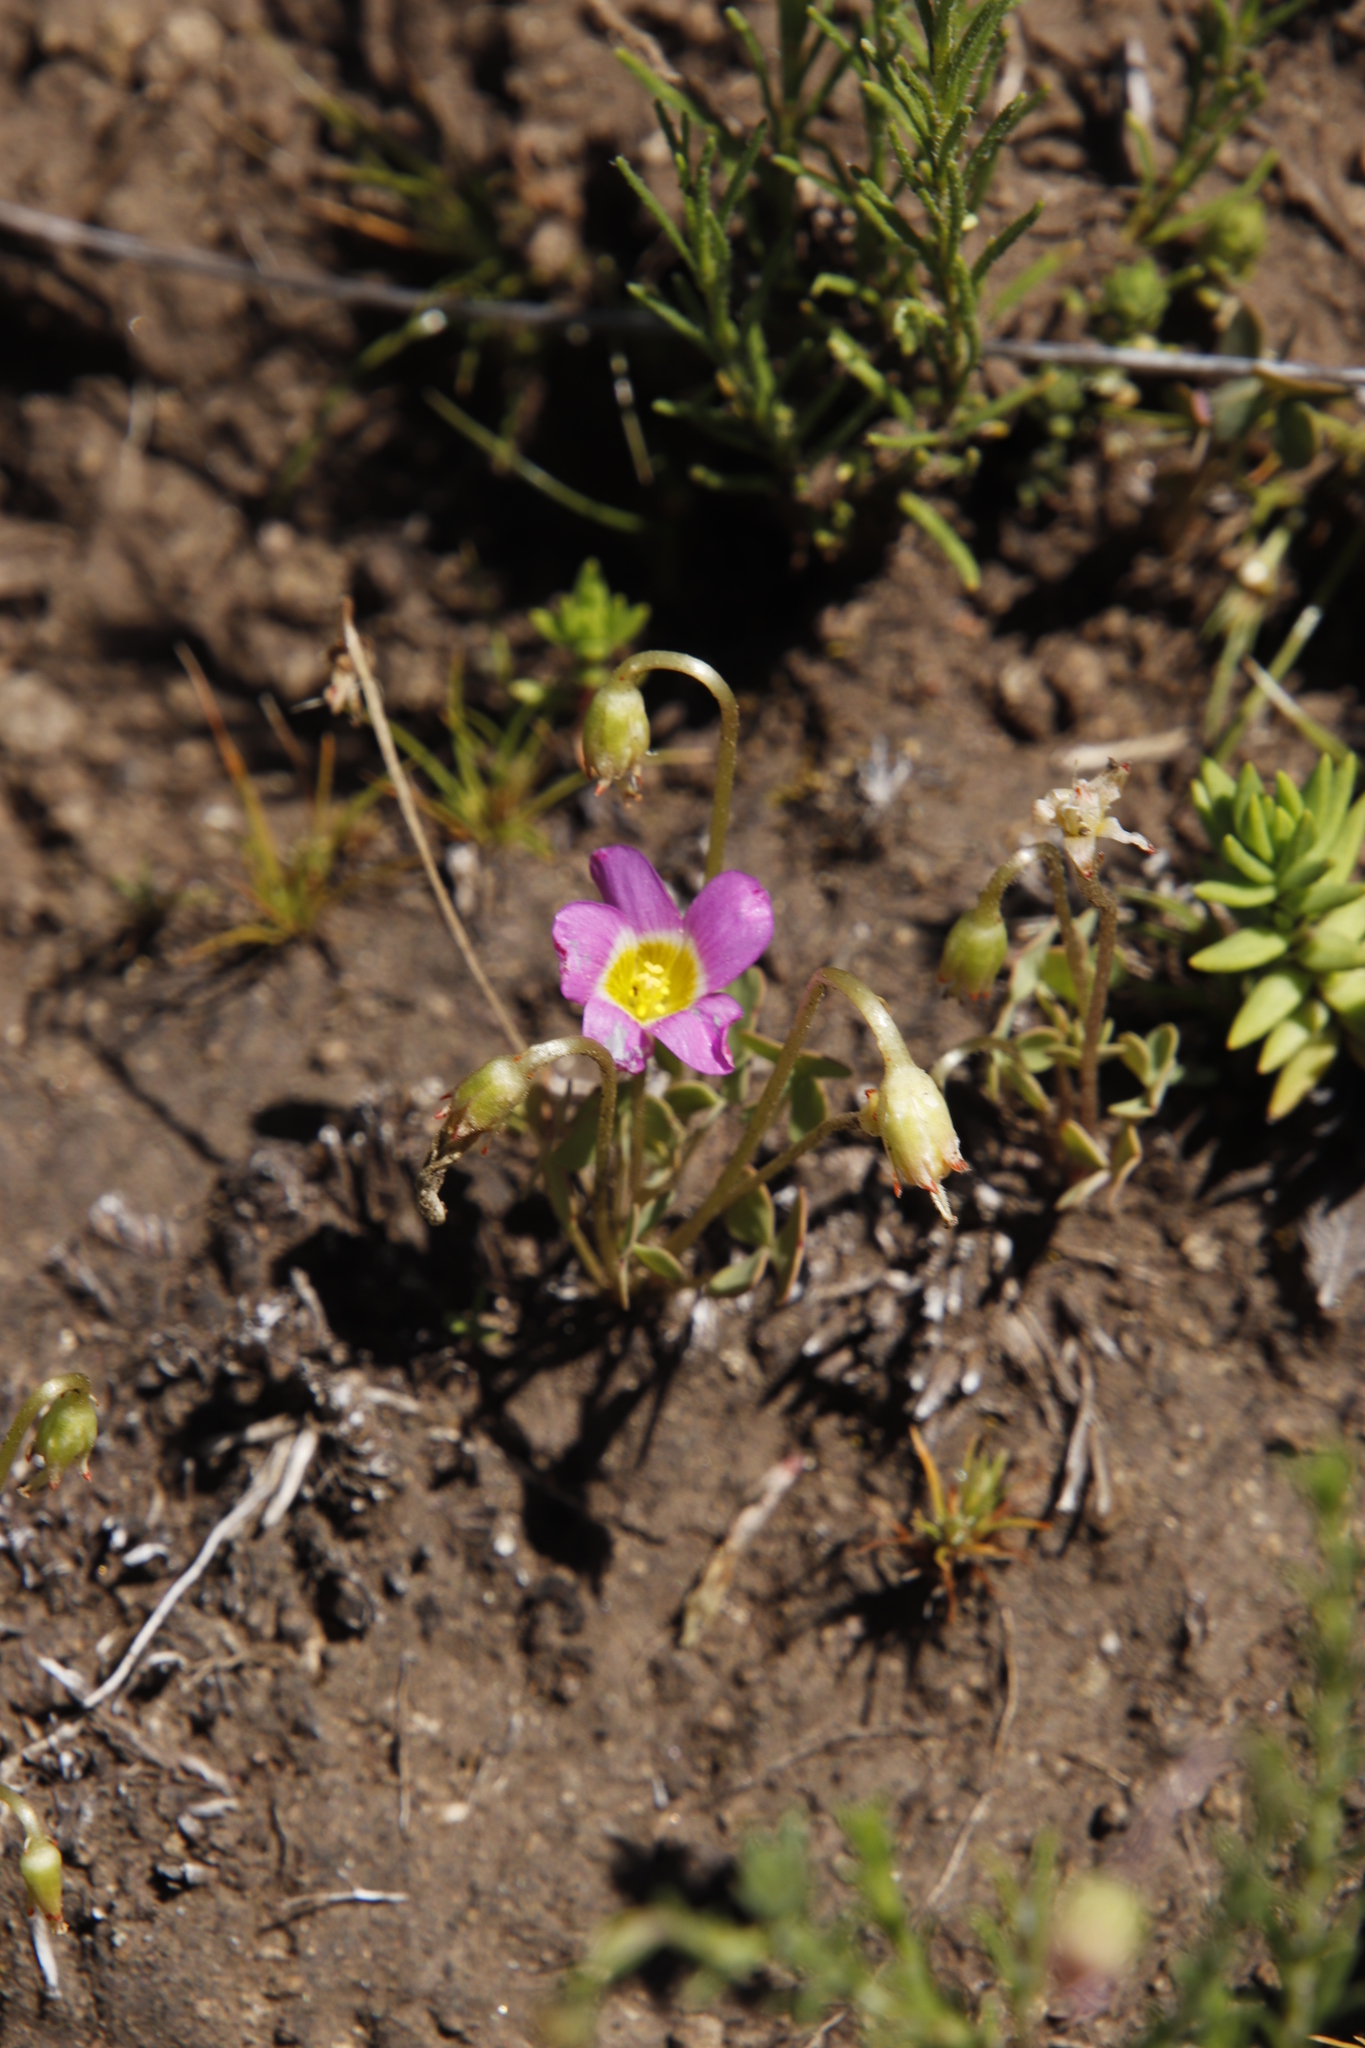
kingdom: Plantae
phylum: Tracheophyta
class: Magnoliopsida
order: Oxalidales
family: Oxalidaceae
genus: Oxalis
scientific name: Oxalis obliquifolia
